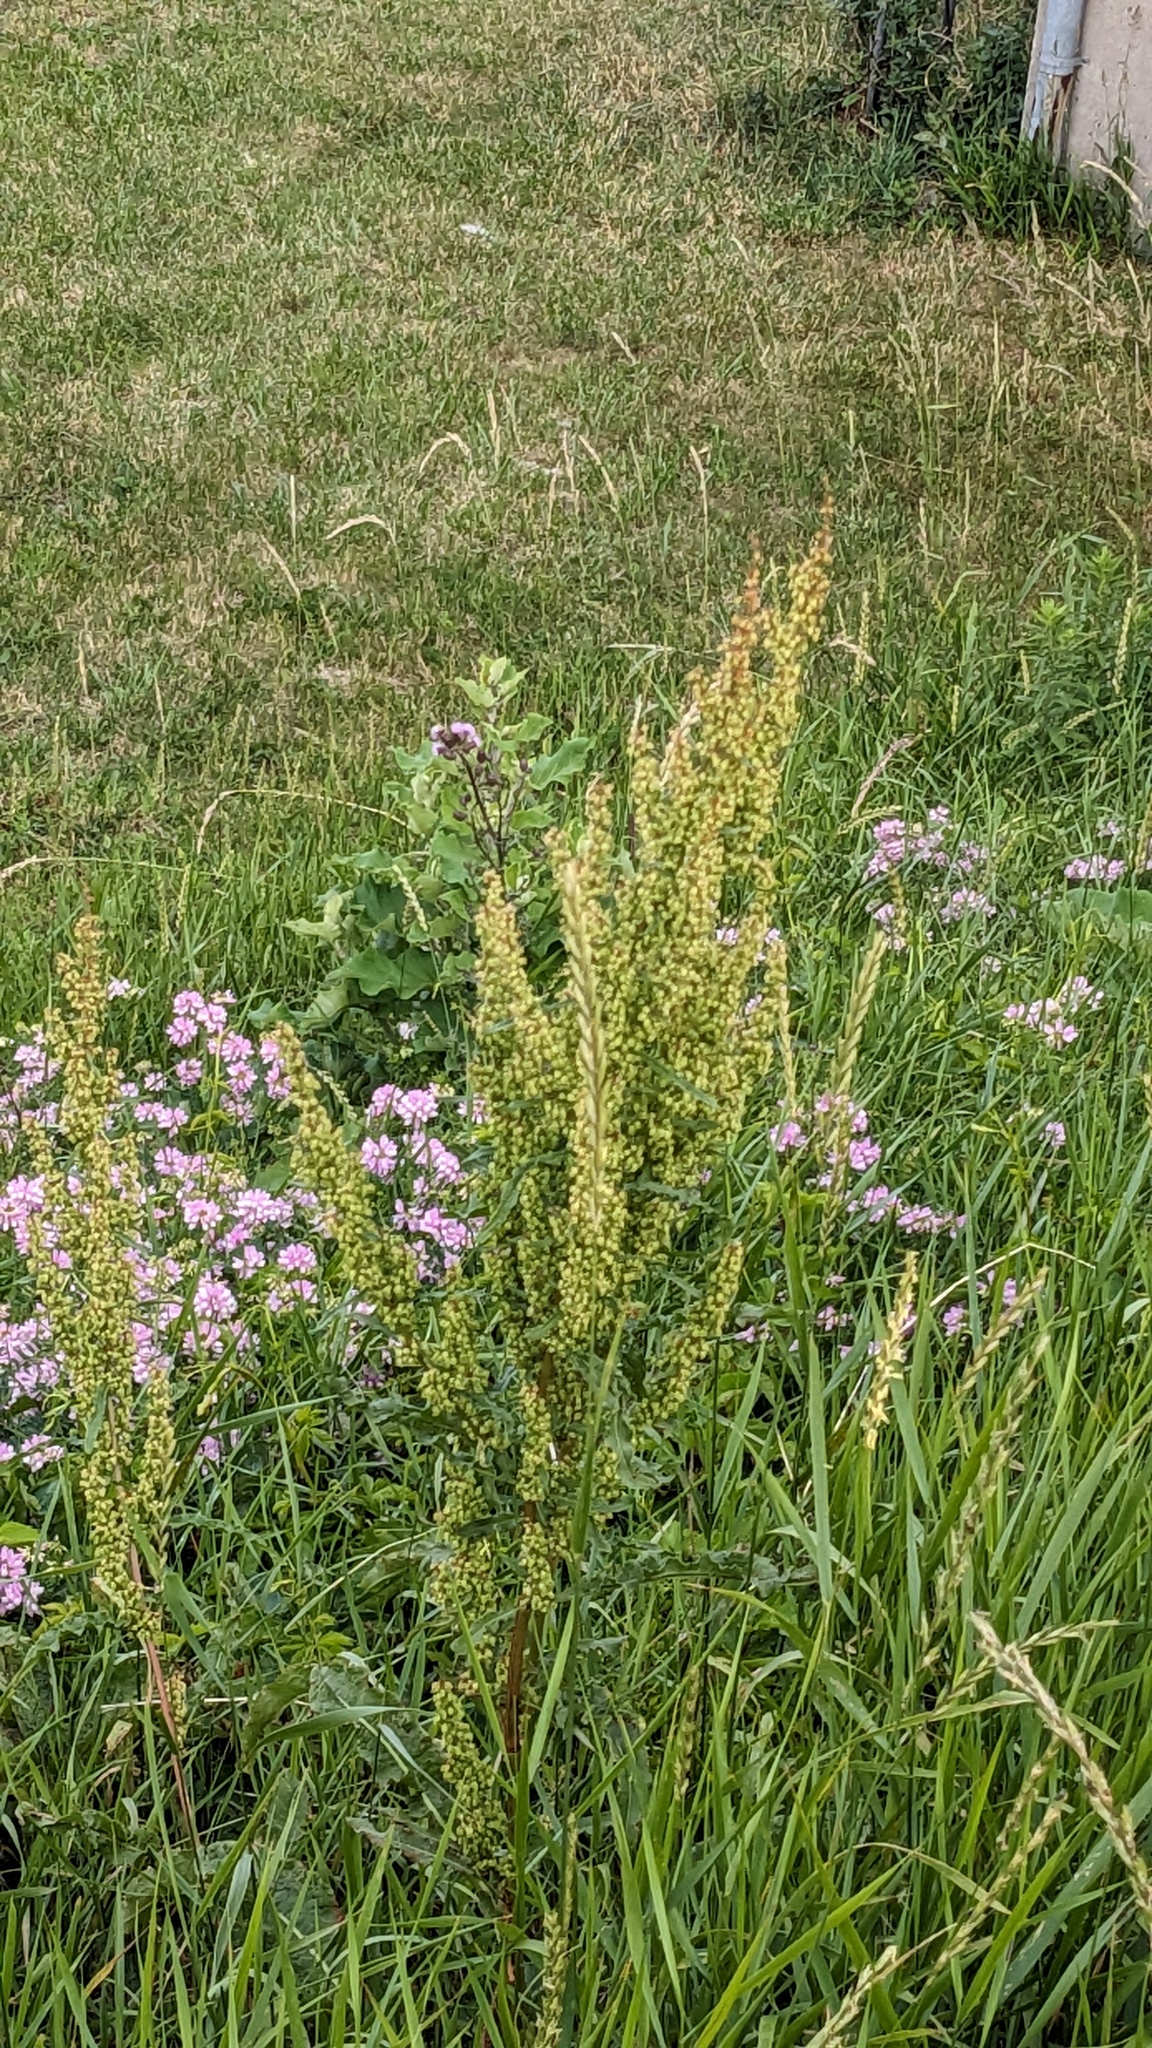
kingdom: Plantae
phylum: Tracheophyta
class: Magnoliopsida
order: Caryophyllales
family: Polygonaceae
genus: Rumex
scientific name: Rumex crispus
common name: Curled dock
